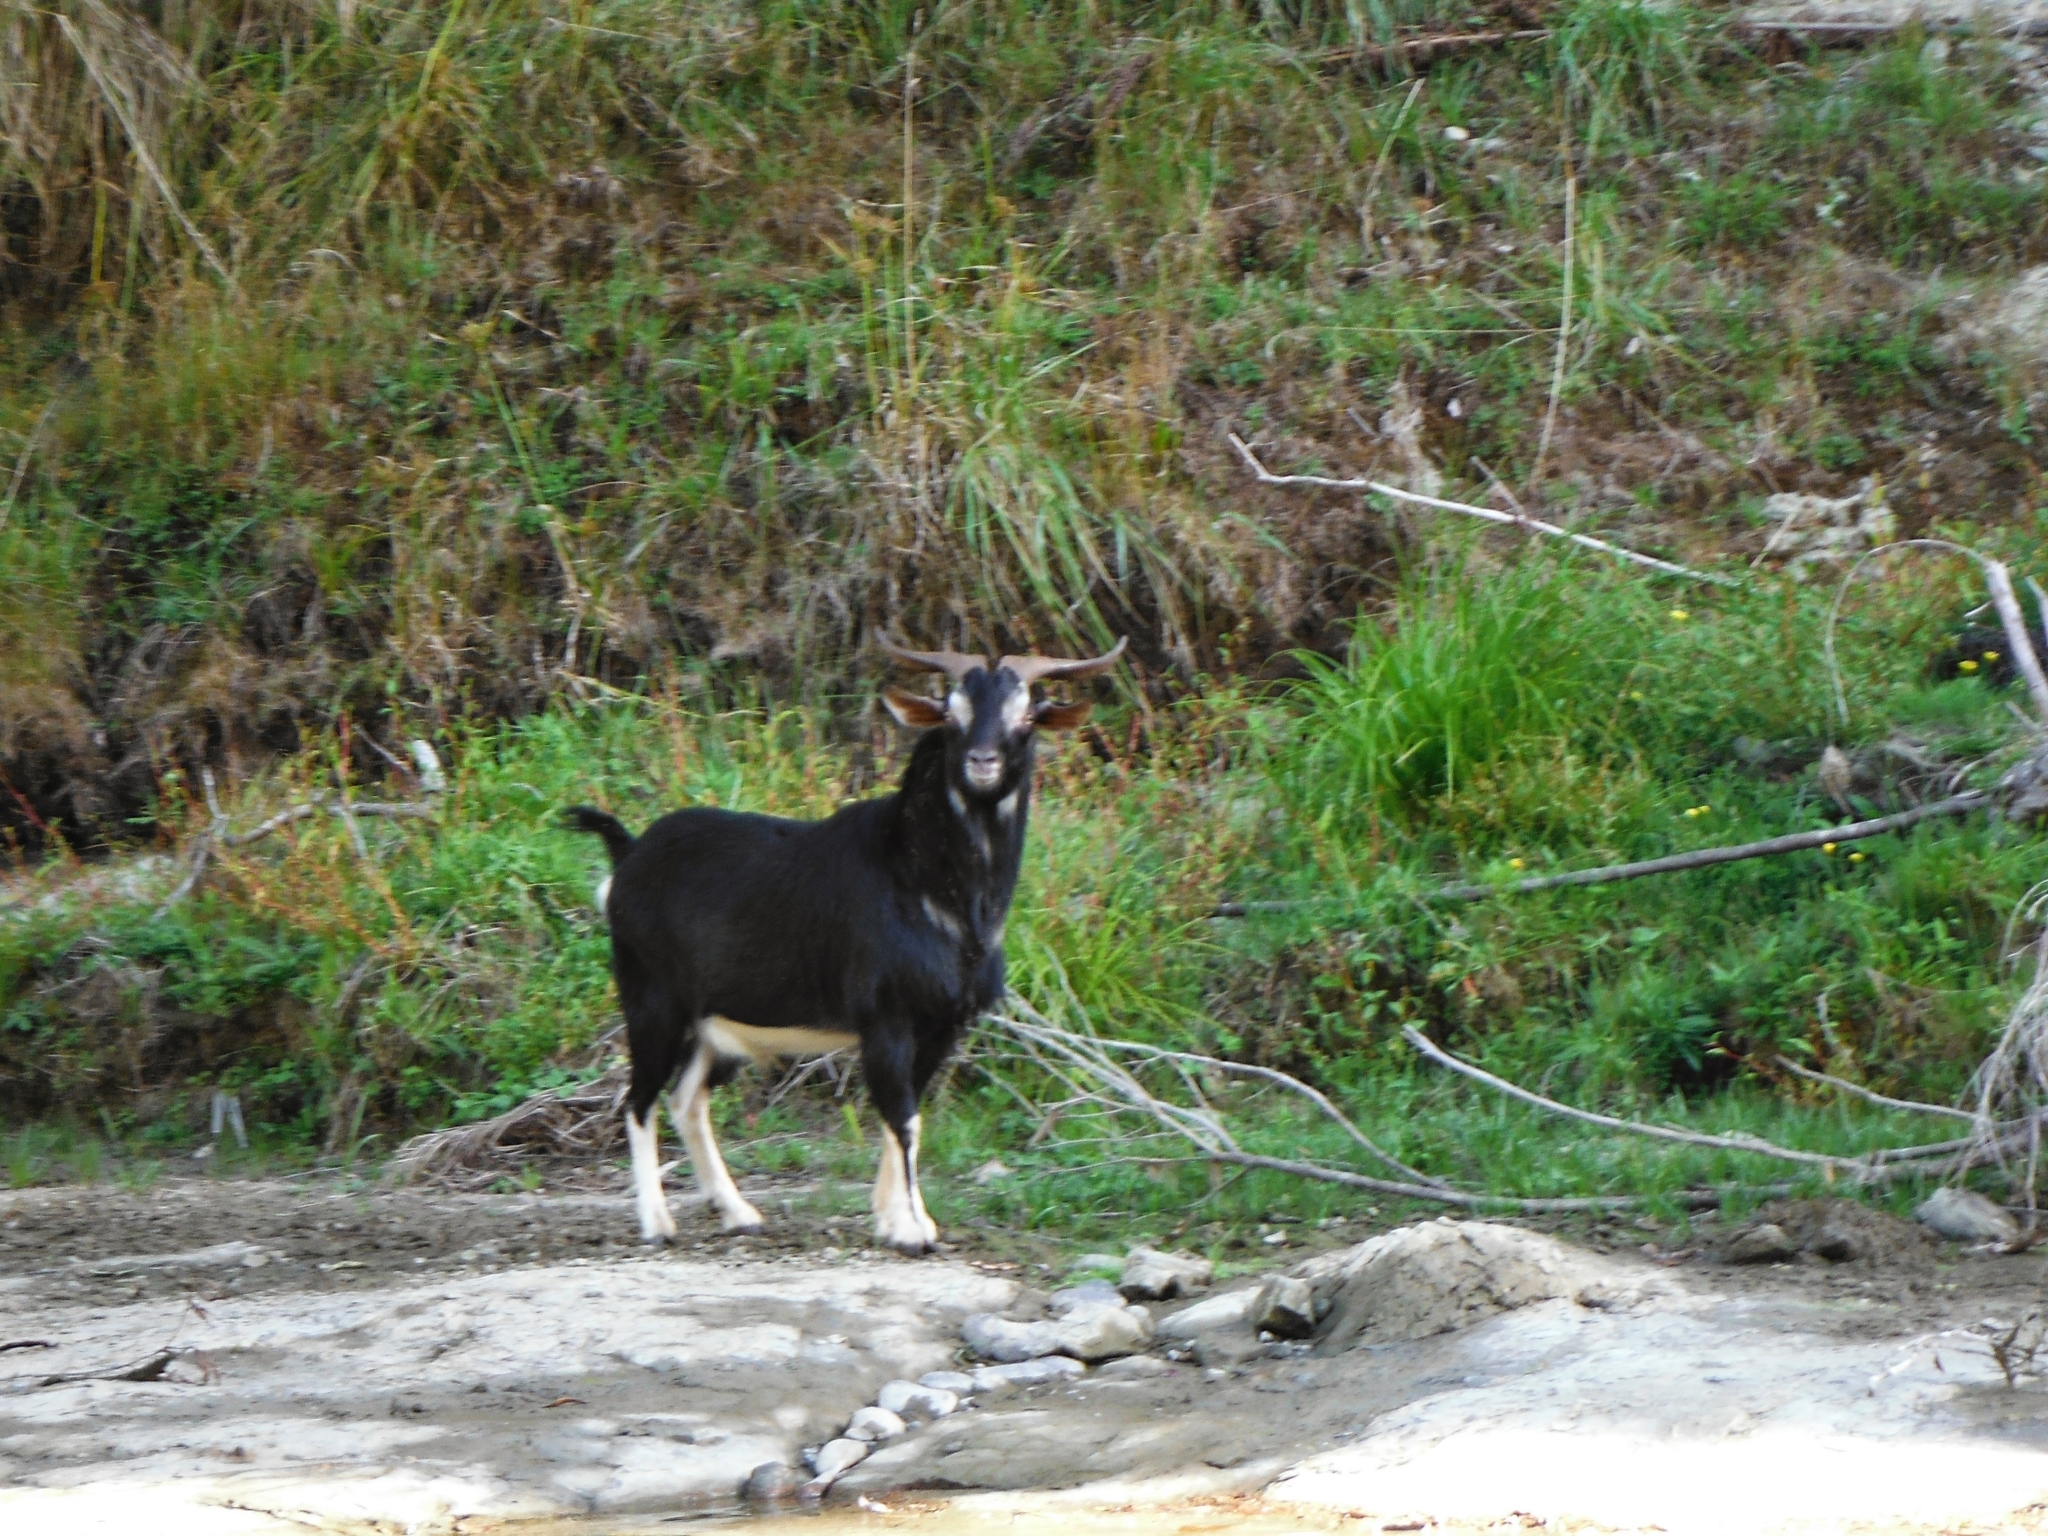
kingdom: Animalia
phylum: Chordata
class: Mammalia
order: Artiodactyla
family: Bovidae
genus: Capra
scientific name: Capra hircus
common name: Domestic goat
